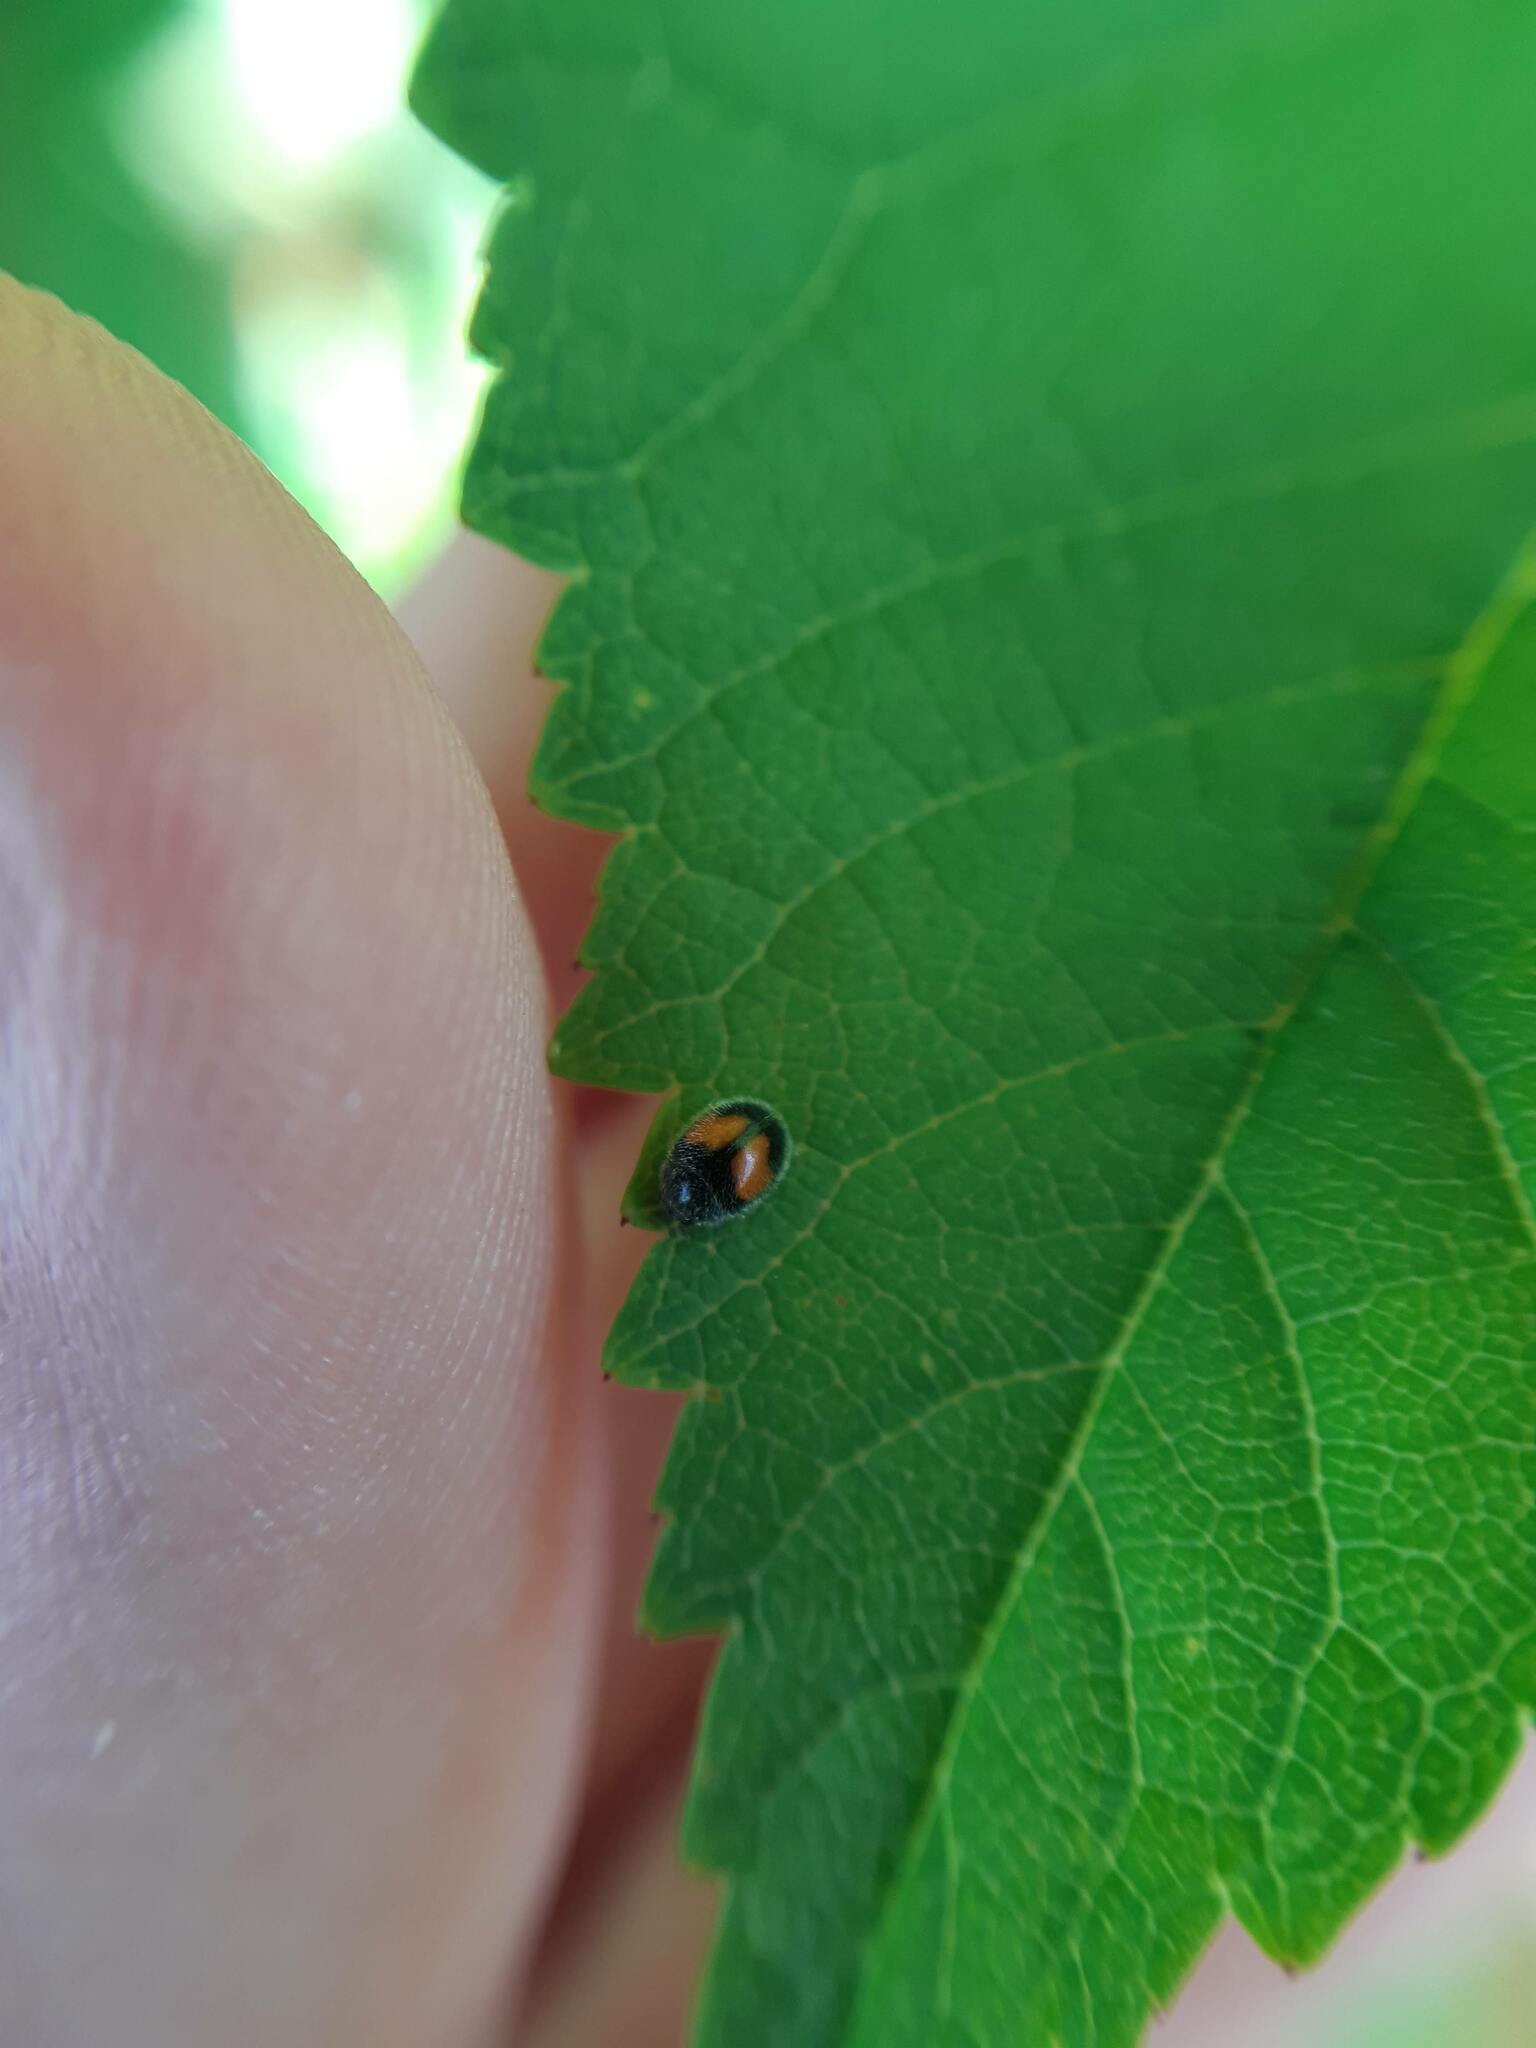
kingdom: Animalia
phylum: Arthropoda
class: Insecta
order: Coleoptera
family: Coccinellidae
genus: Scymnus
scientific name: Scymnus notescens
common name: Minute two-spotted ladybird beetle
